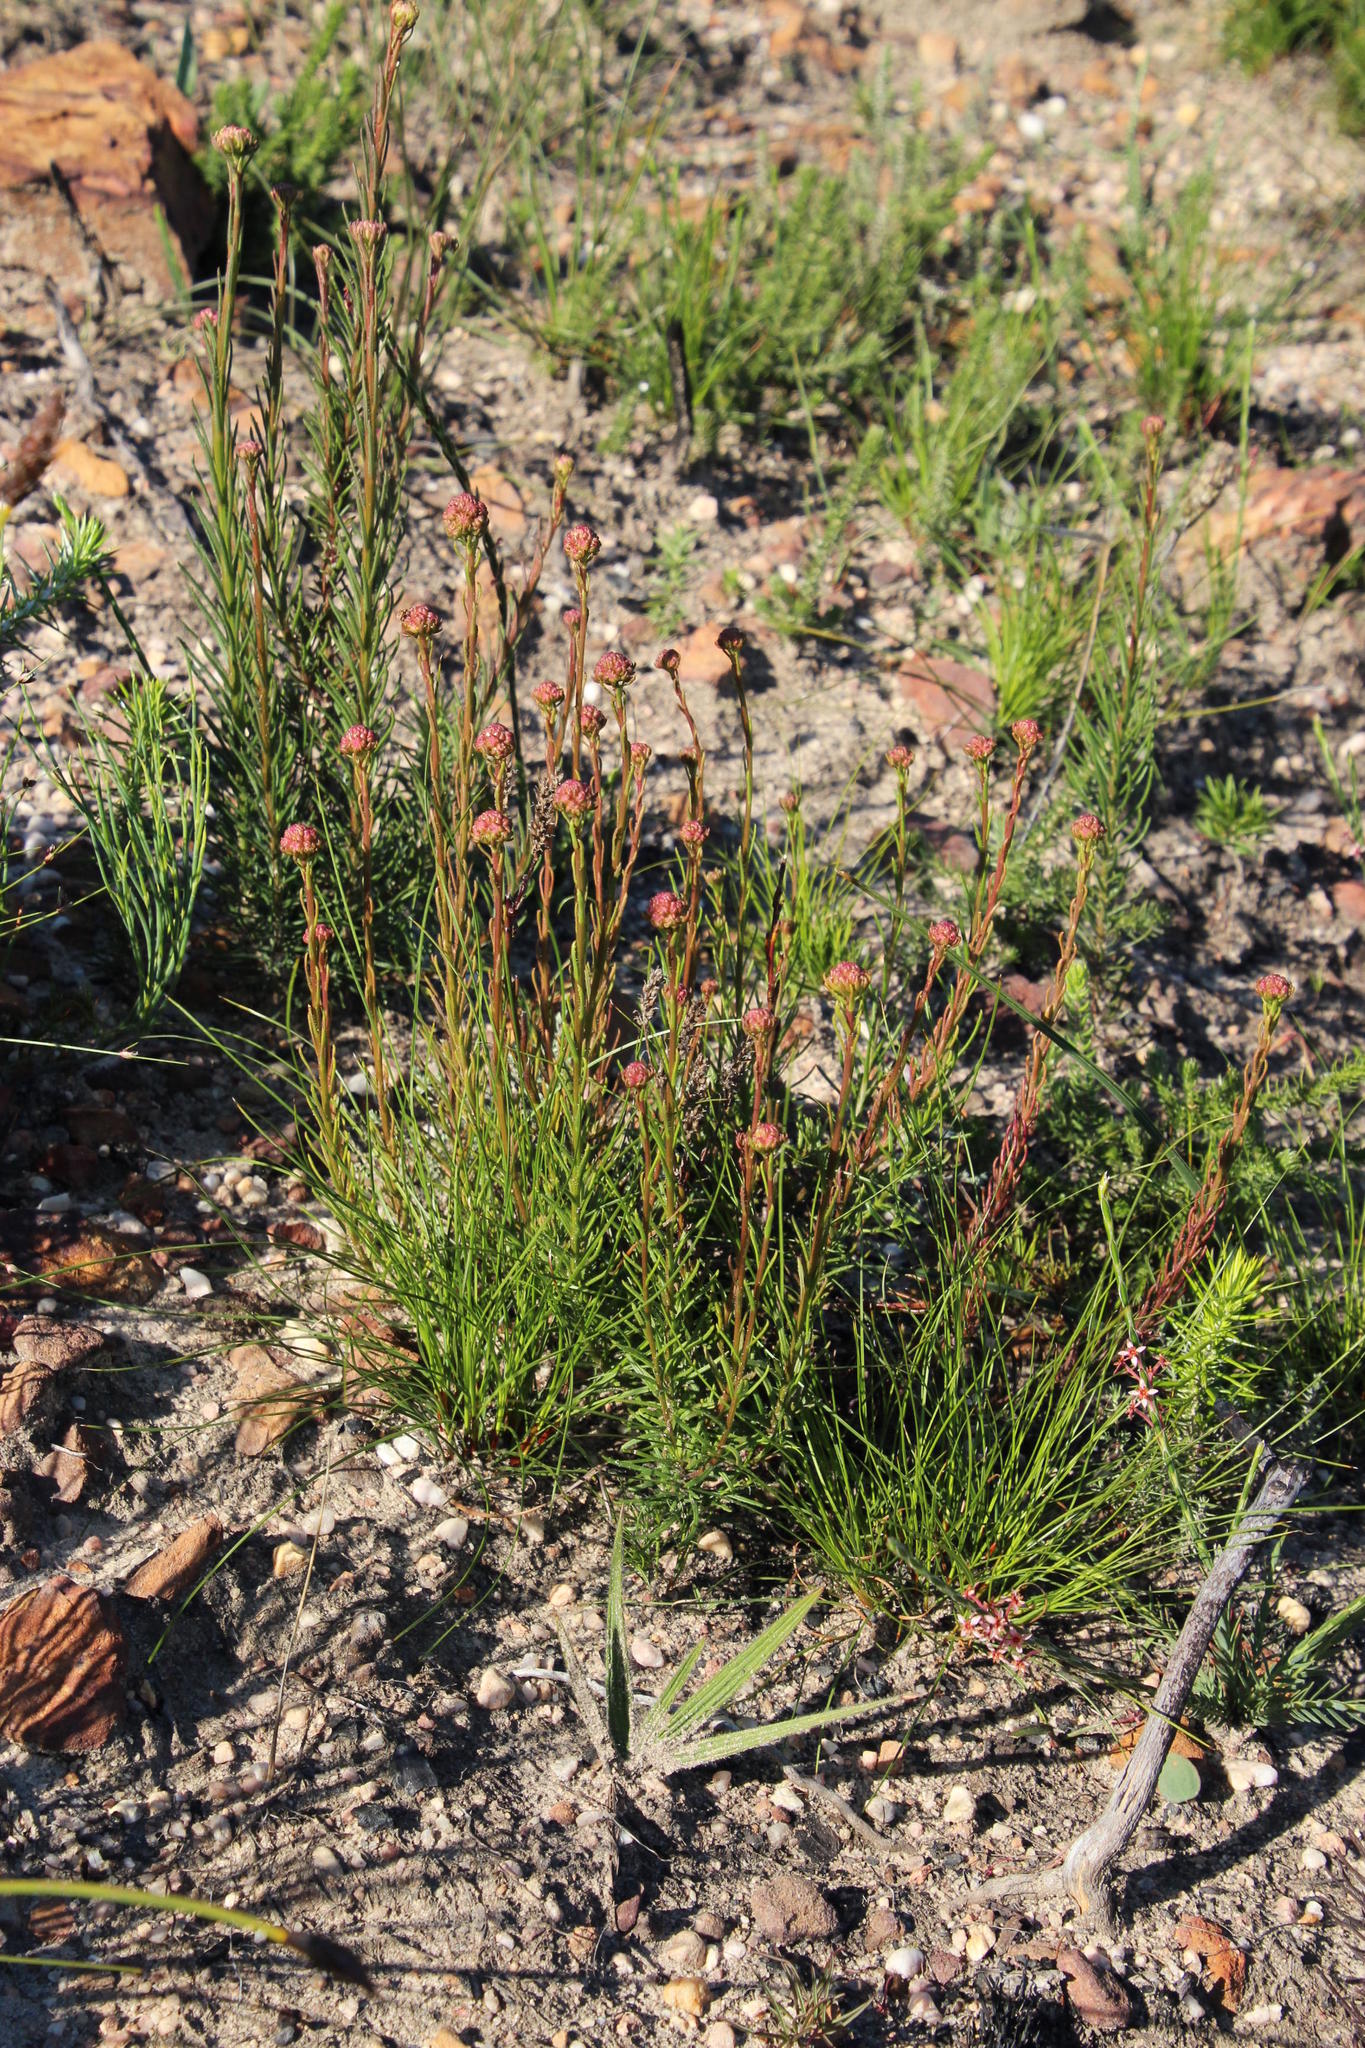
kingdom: Plantae
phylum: Tracheophyta
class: Magnoliopsida
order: Lamiales
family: Scrophulariaceae
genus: Pseudoselago
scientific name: Pseudoselago spuria
